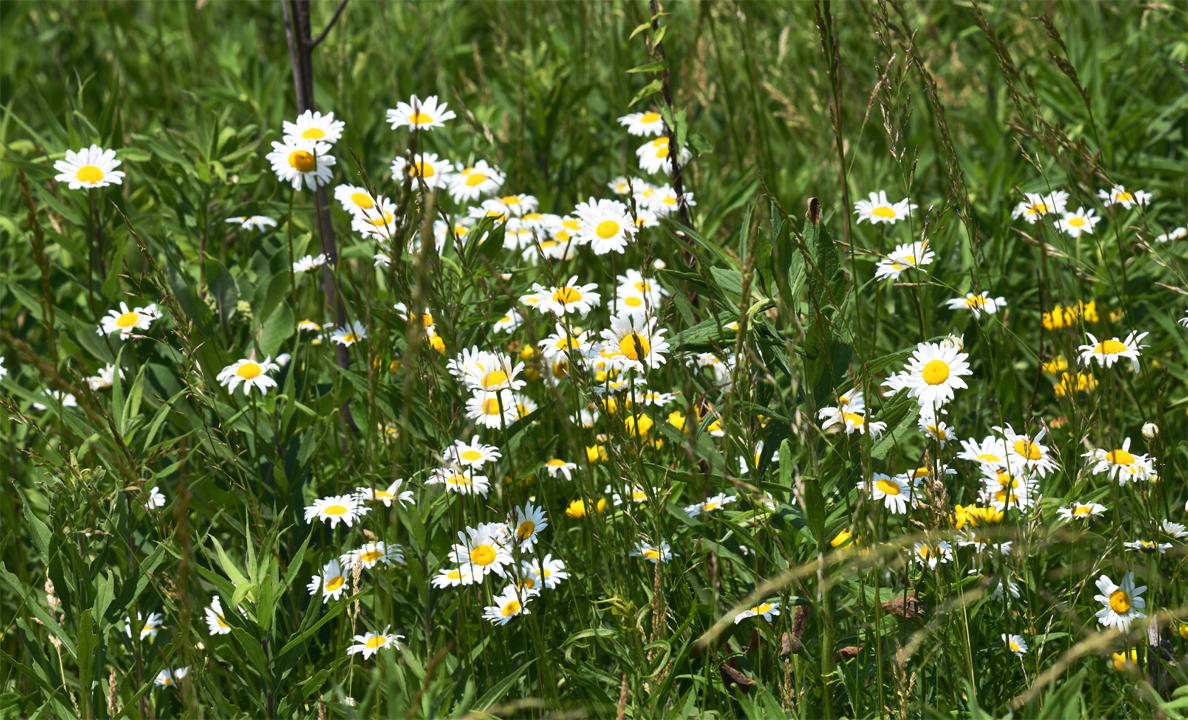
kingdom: Plantae
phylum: Tracheophyta
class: Magnoliopsida
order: Asterales
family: Asteraceae
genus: Leucanthemum
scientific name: Leucanthemum vulgare
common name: Oxeye daisy
